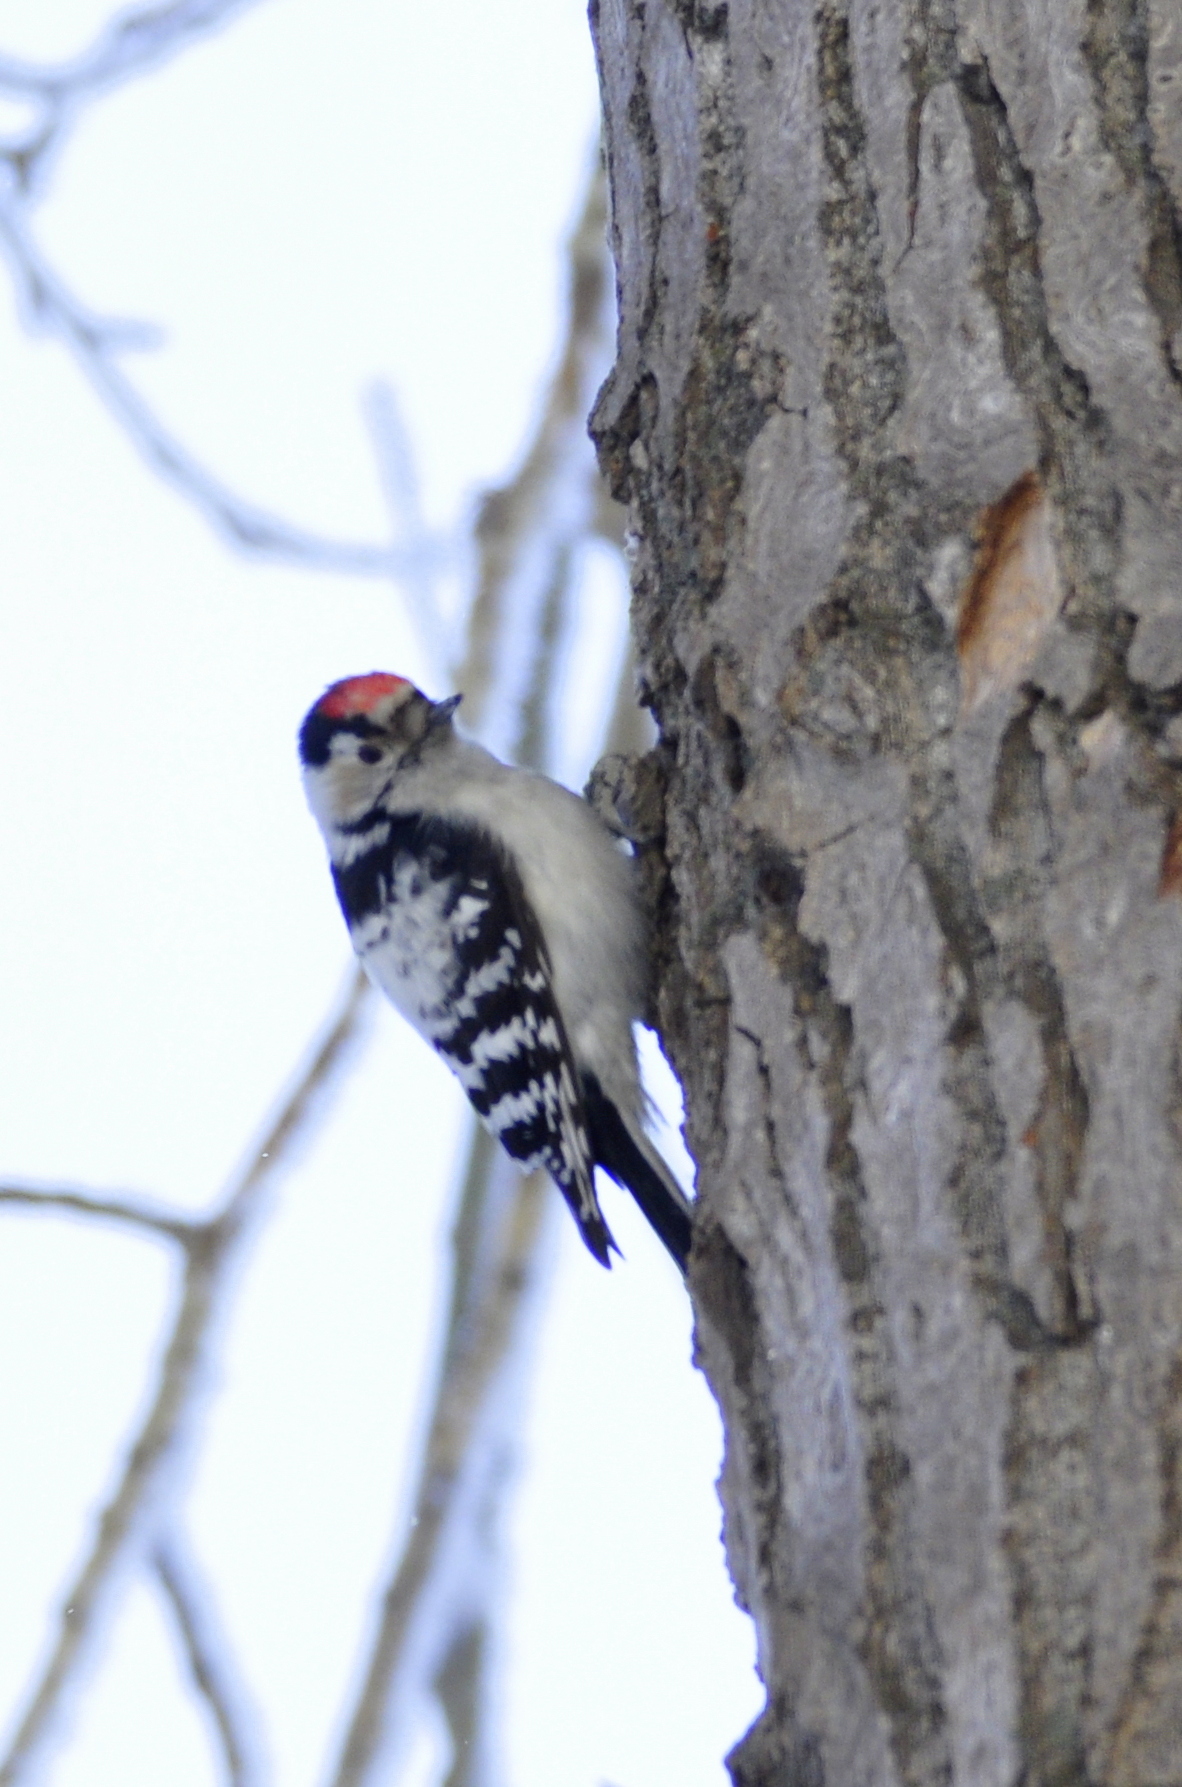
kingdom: Animalia
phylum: Chordata
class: Aves
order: Piciformes
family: Picidae
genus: Dryobates
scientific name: Dryobates minor
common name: Lesser spotted woodpecker
